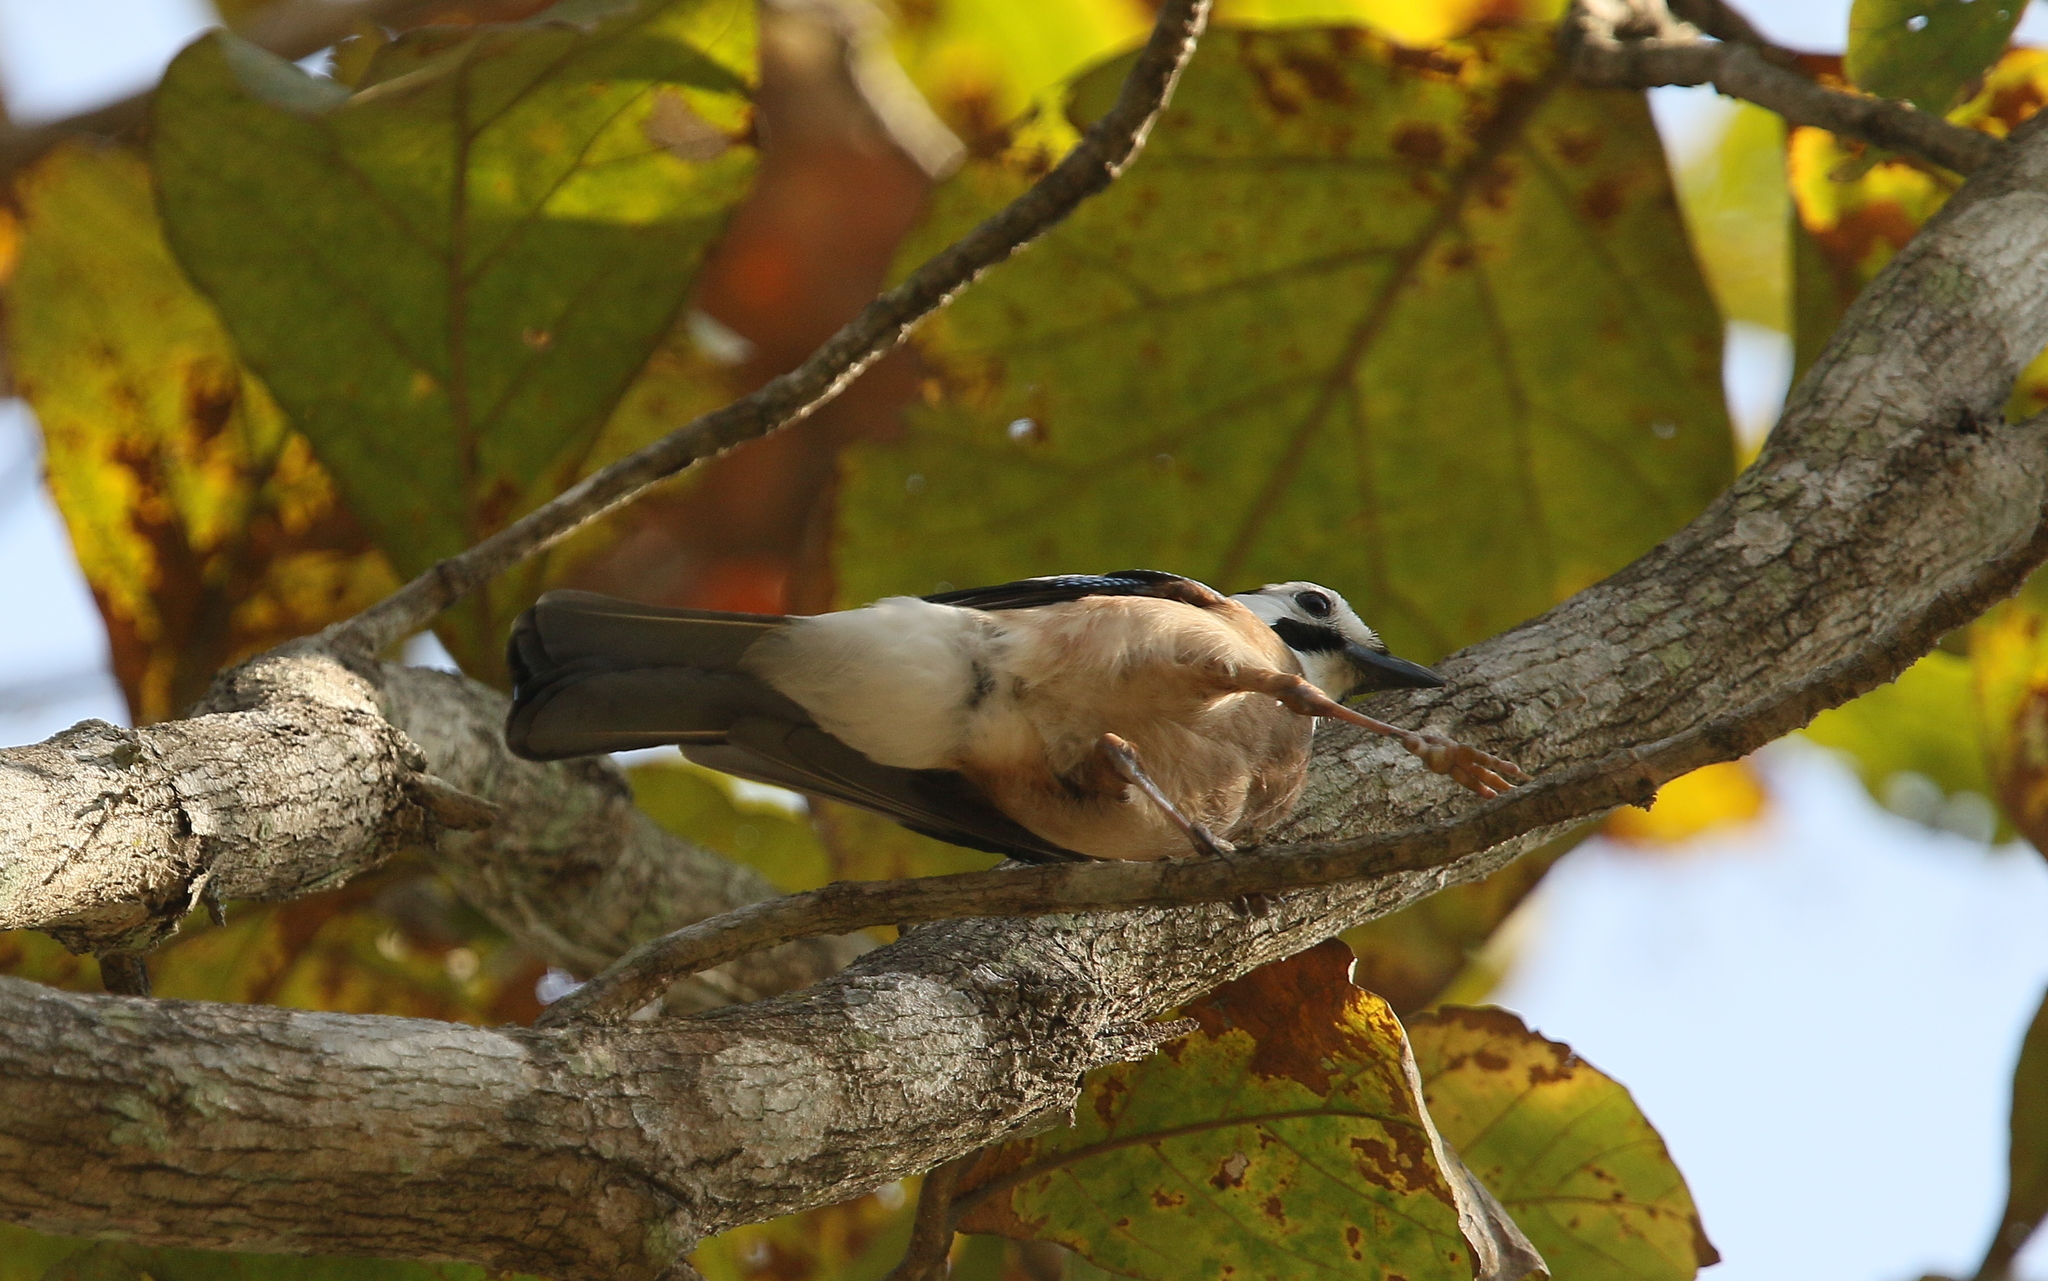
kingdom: Animalia
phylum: Chordata
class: Aves
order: Passeriformes
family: Corvidae
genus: Garrulus
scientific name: Garrulus glandarius
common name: Eurasian jay
